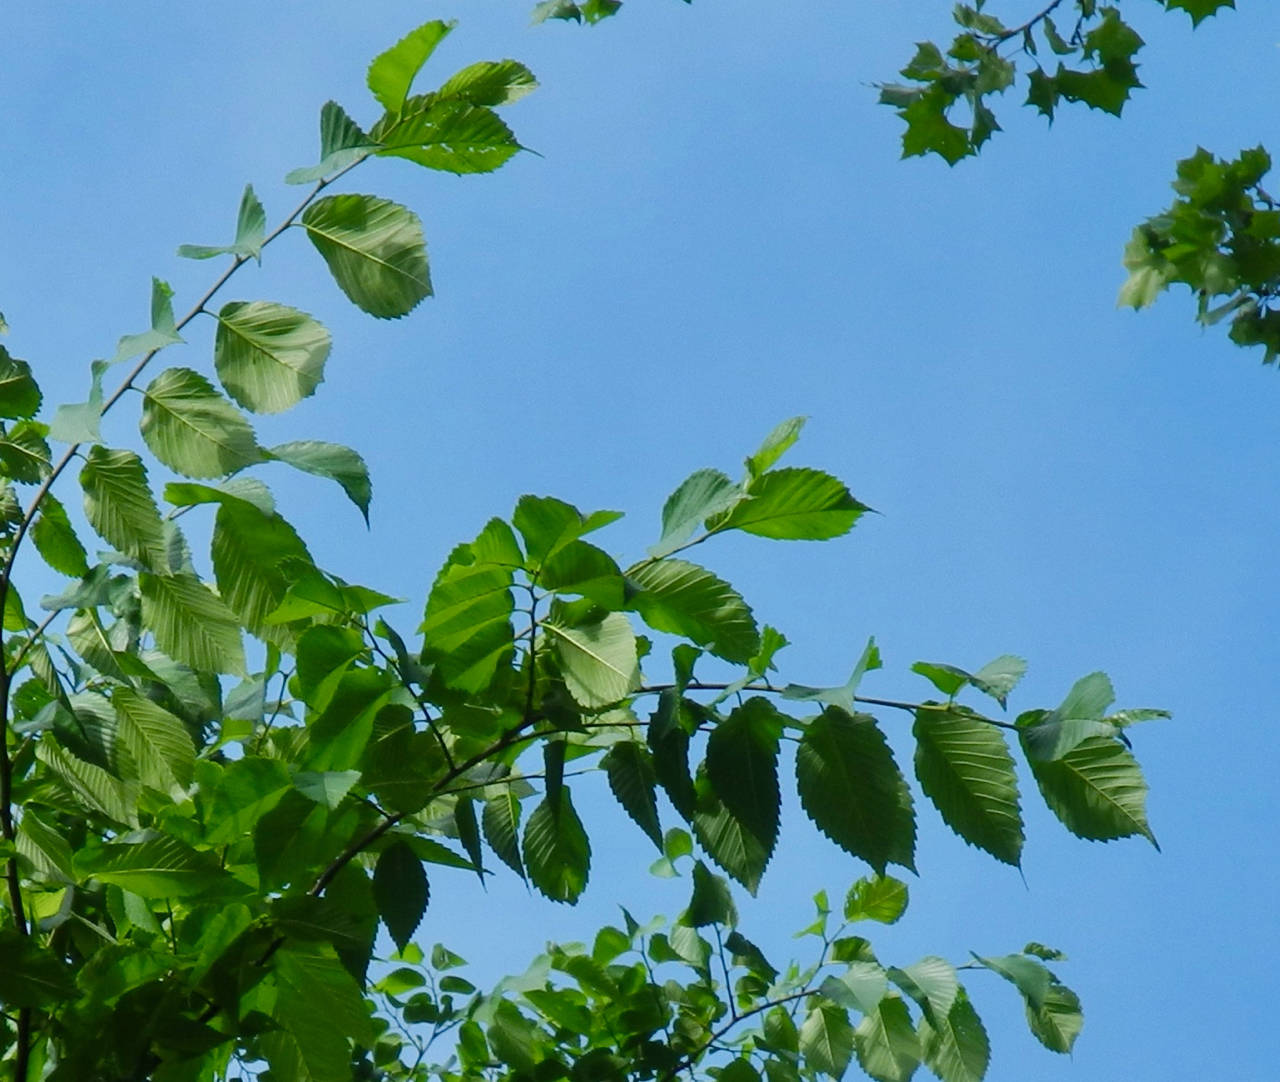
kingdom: Plantae
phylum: Tracheophyta
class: Magnoliopsida
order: Rosales
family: Ulmaceae
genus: Ulmus
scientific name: Ulmus americana
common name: American elm
